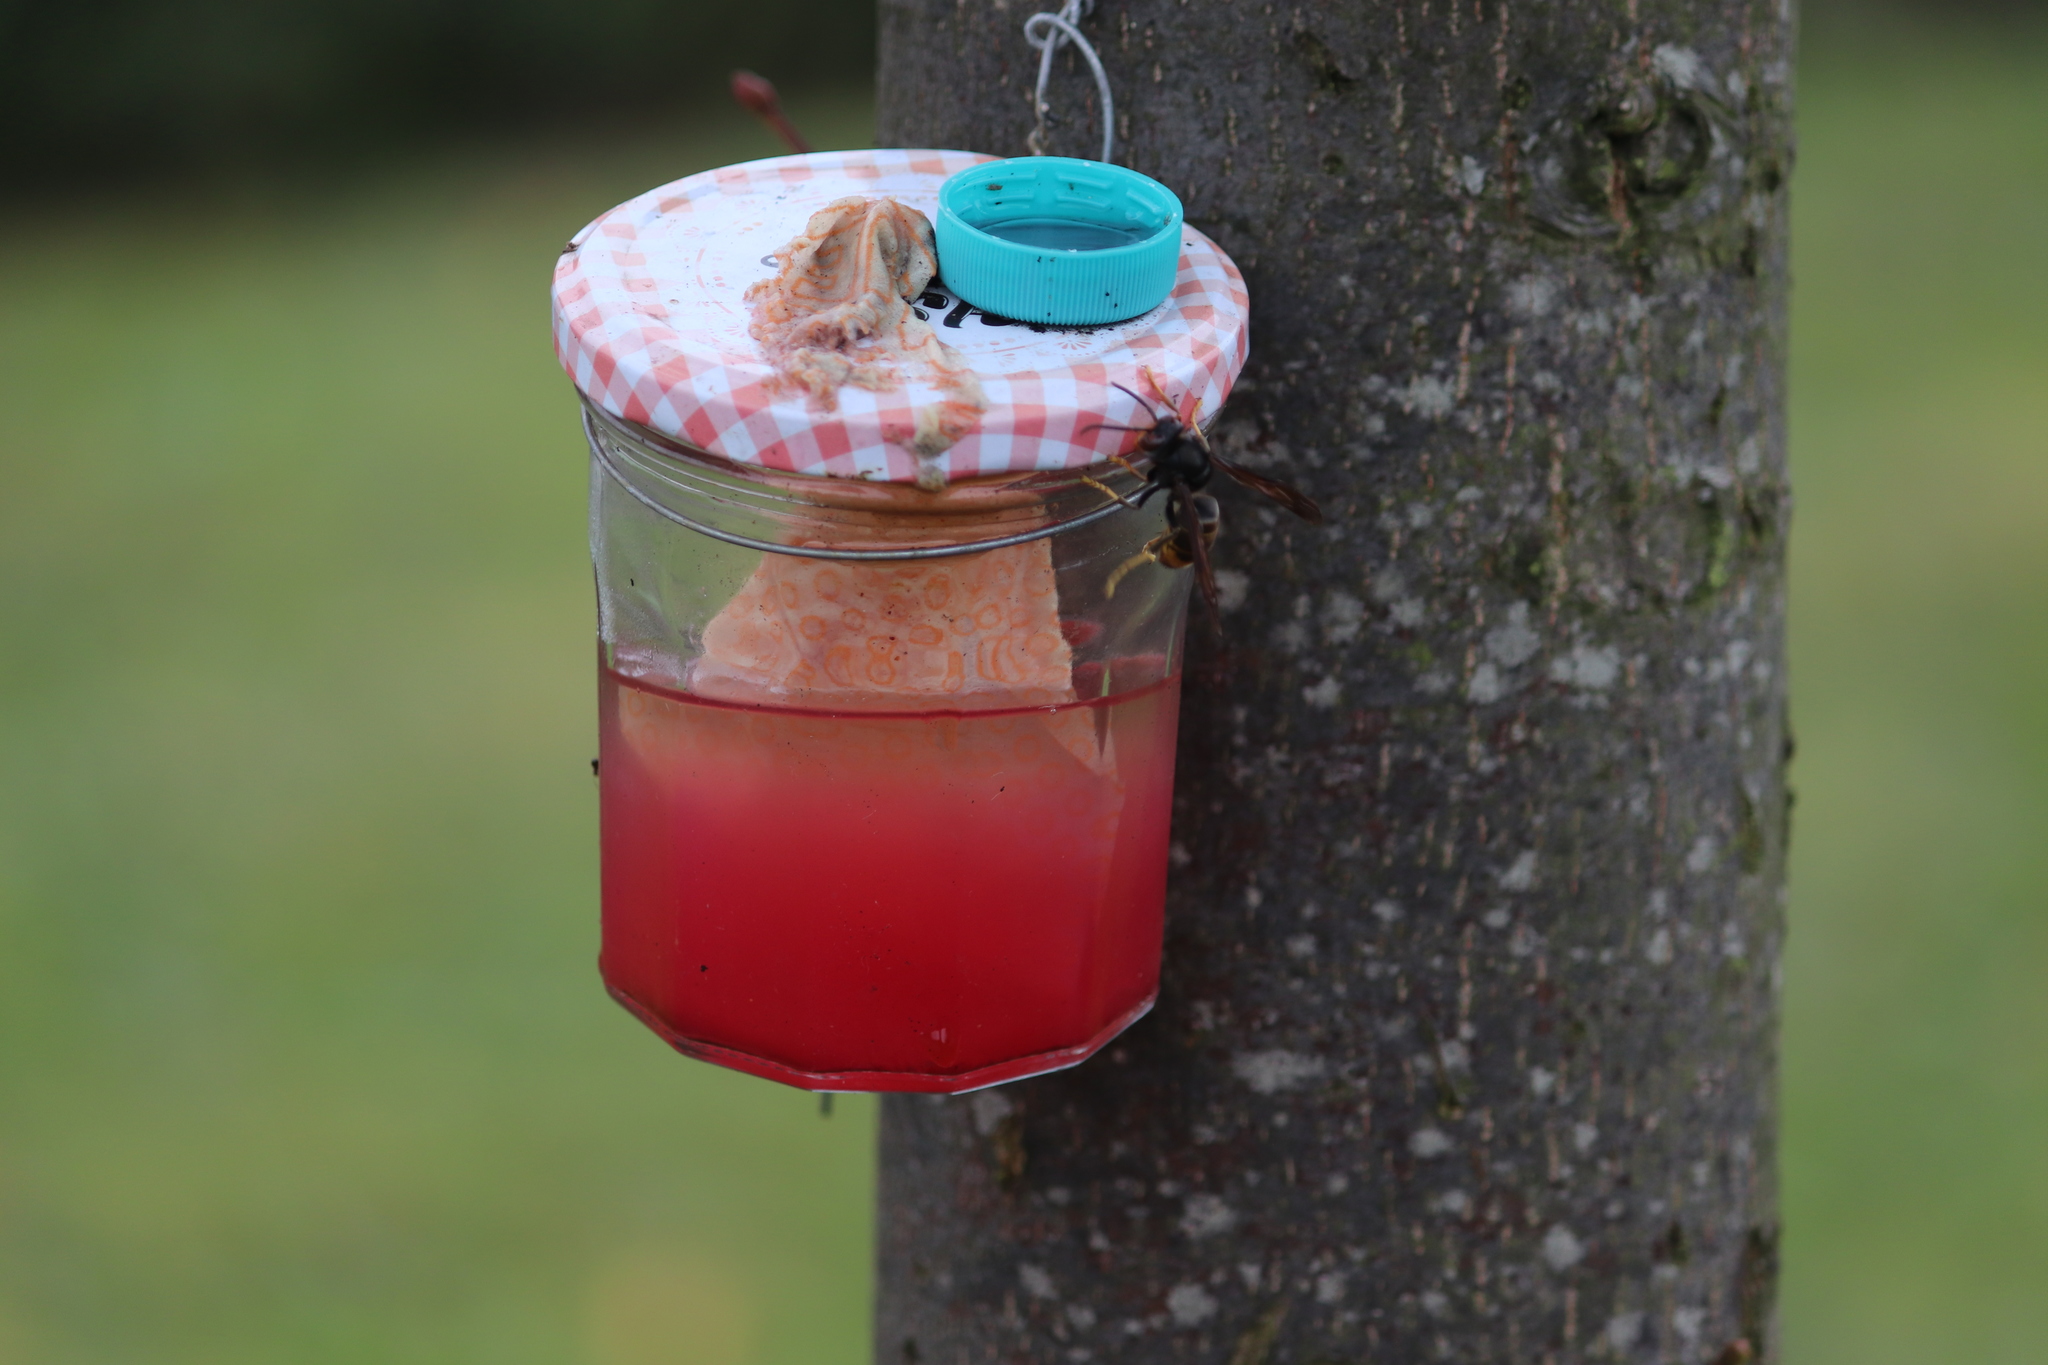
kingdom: Animalia
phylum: Arthropoda
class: Insecta
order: Hymenoptera
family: Vespidae
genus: Vespa
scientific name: Vespa velutina
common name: Asian hornet
